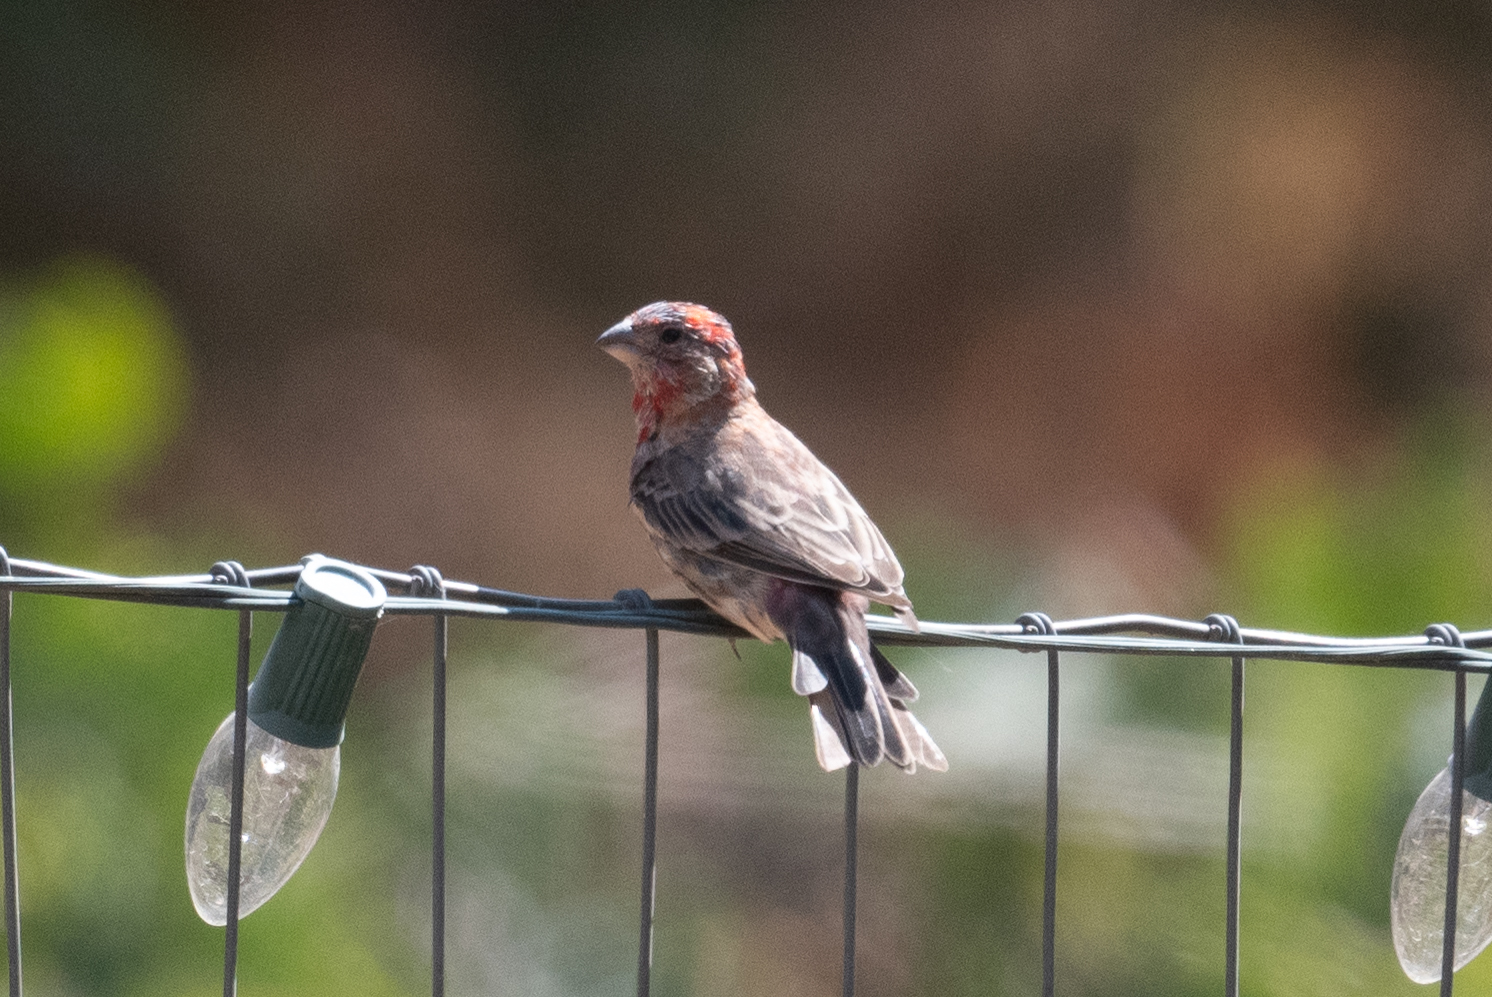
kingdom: Animalia
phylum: Chordata
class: Aves
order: Passeriformes
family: Fringillidae
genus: Haemorhous
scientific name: Haemorhous mexicanus
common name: House finch
